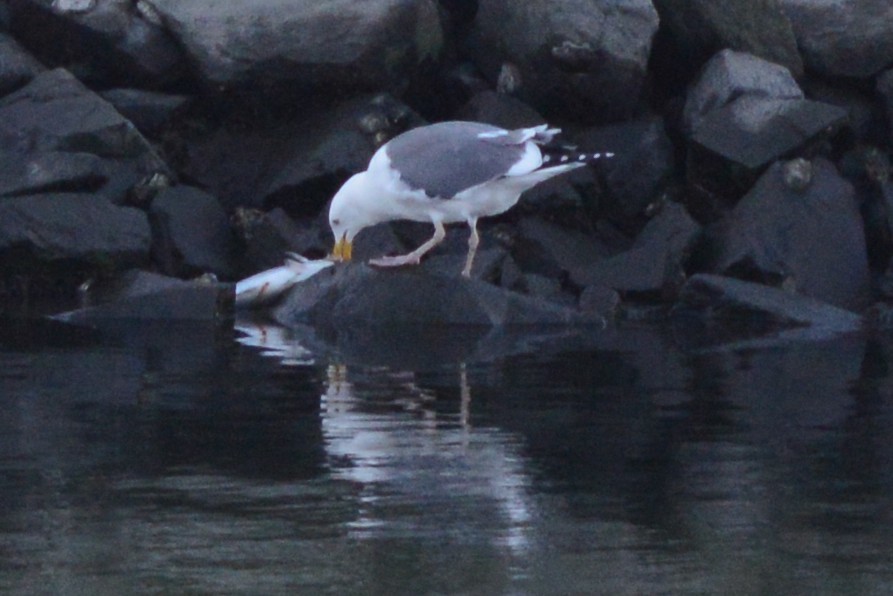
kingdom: Animalia
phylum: Chordata
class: Aves
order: Charadriiformes
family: Laridae
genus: Larus
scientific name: Larus occidentalis
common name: Western gull
